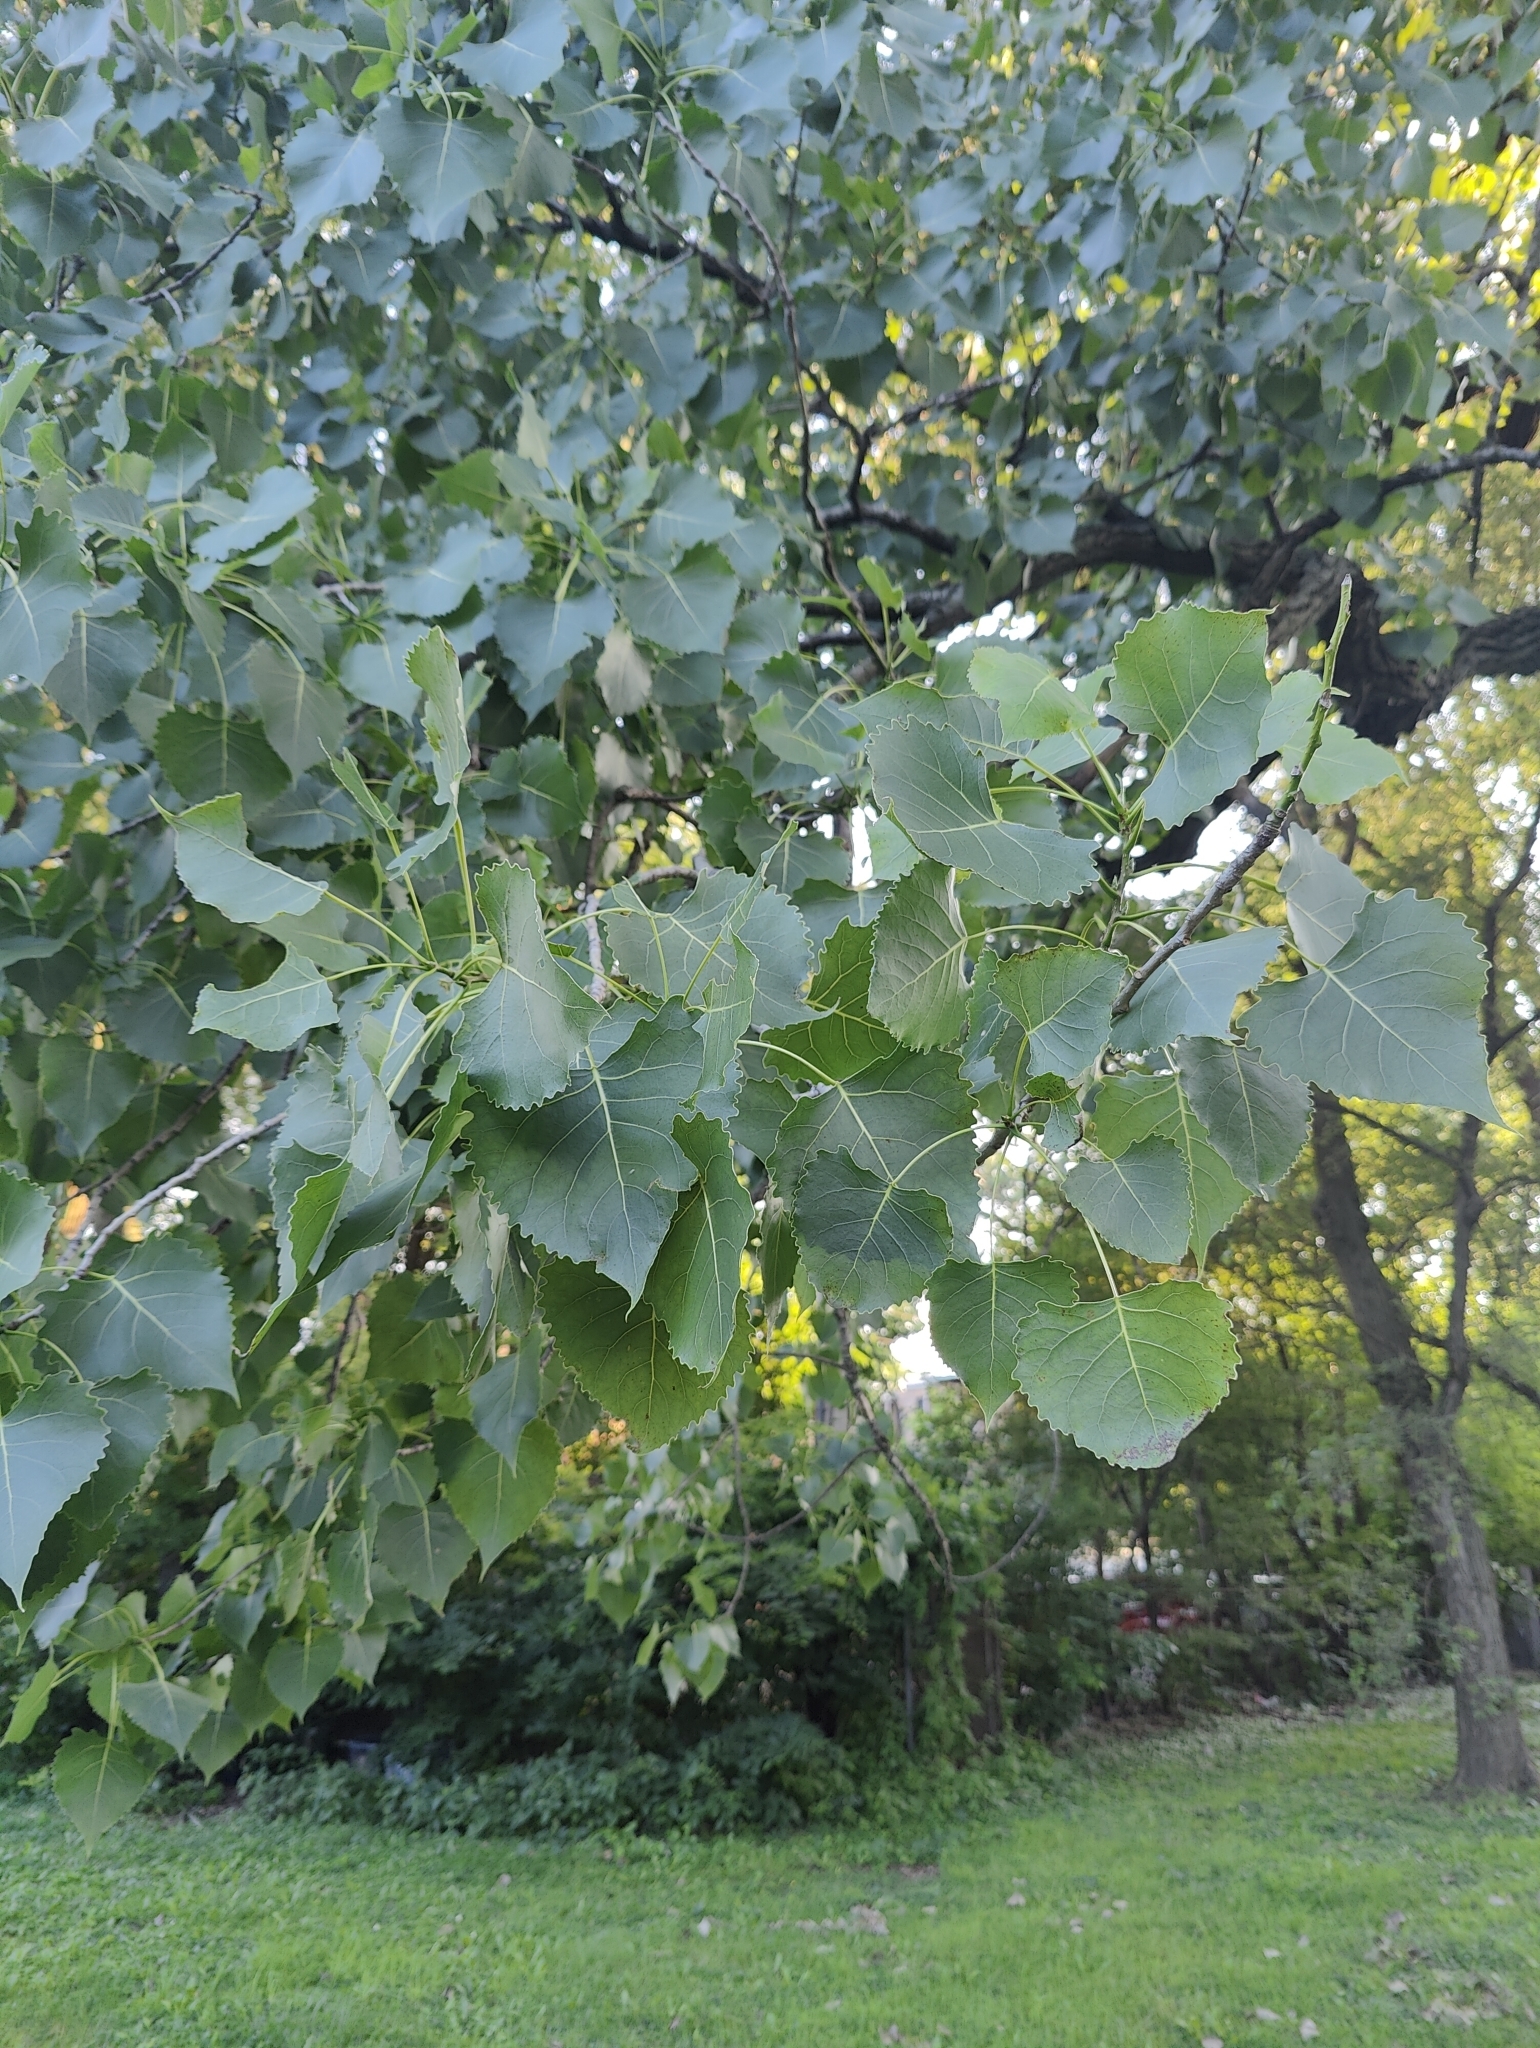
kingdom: Plantae
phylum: Tracheophyta
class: Magnoliopsida
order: Malpighiales
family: Salicaceae
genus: Populus
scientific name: Populus deltoides
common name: Eastern cottonwood
